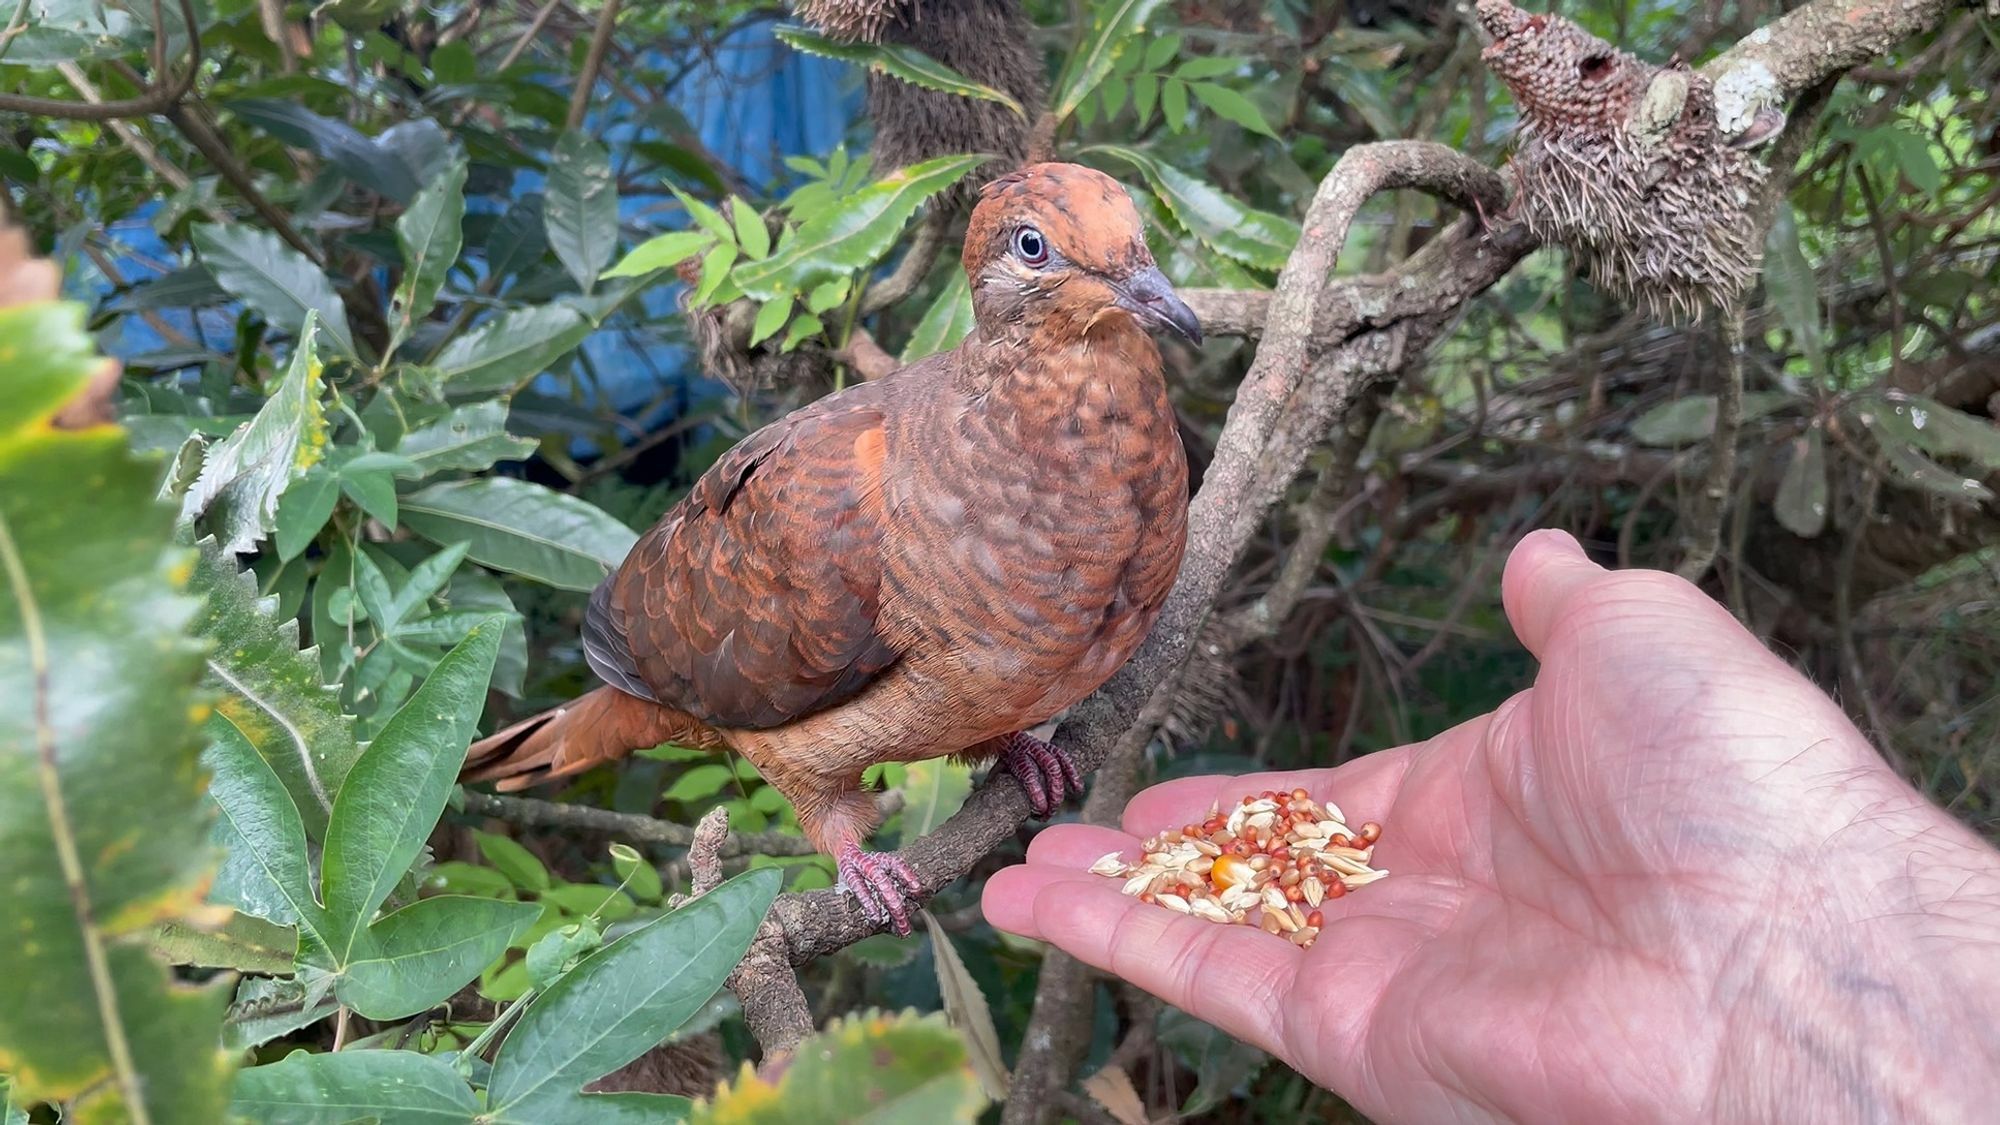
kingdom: Animalia
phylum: Chordata
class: Aves
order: Columbiformes
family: Columbidae
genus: Macropygia
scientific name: Macropygia phasianella
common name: Brown cuckoo-dove
